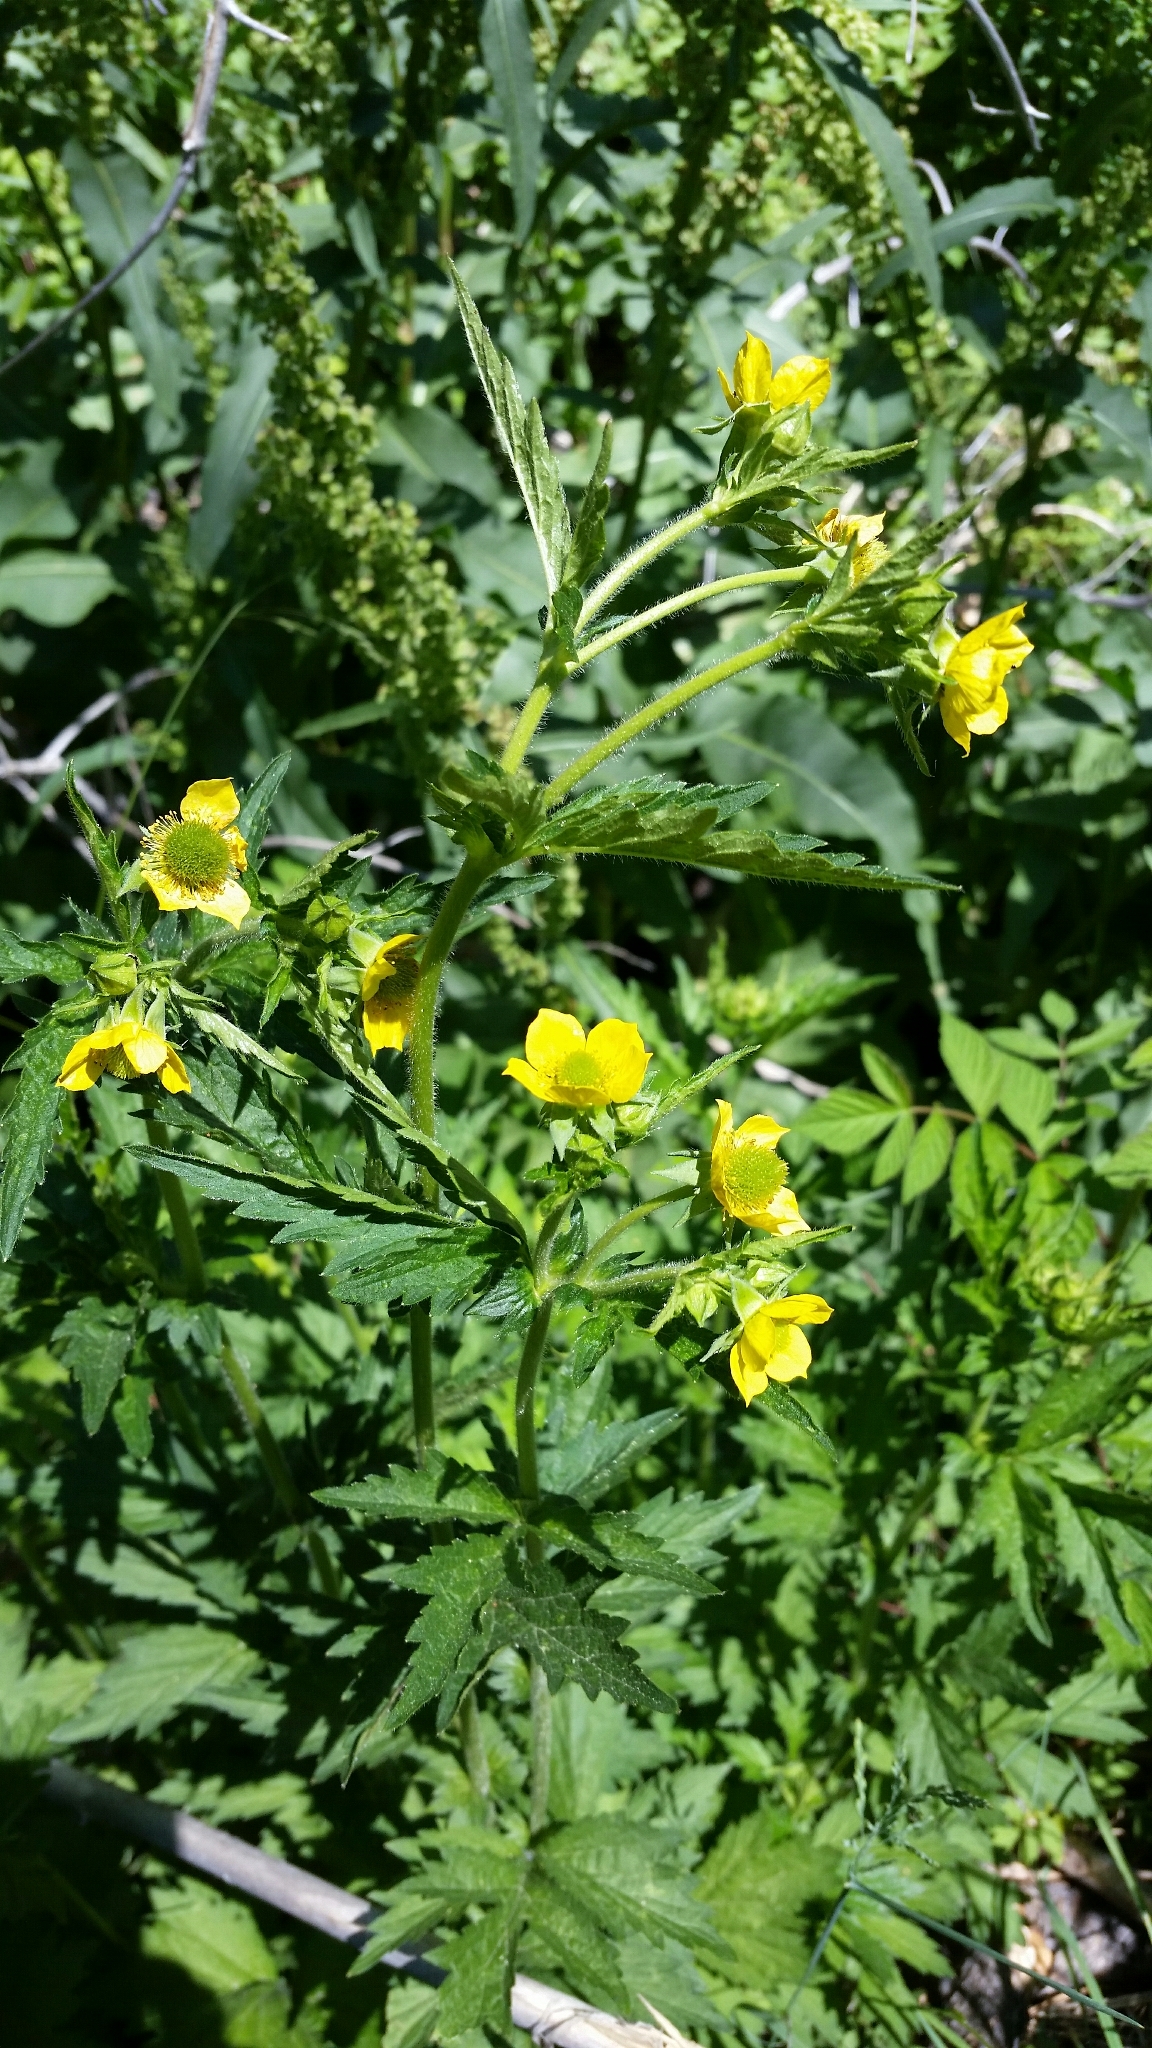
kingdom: Plantae
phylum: Tracheophyta
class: Magnoliopsida
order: Rosales
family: Rosaceae
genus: Geum
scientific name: Geum aleppicum
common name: Yellow avens
